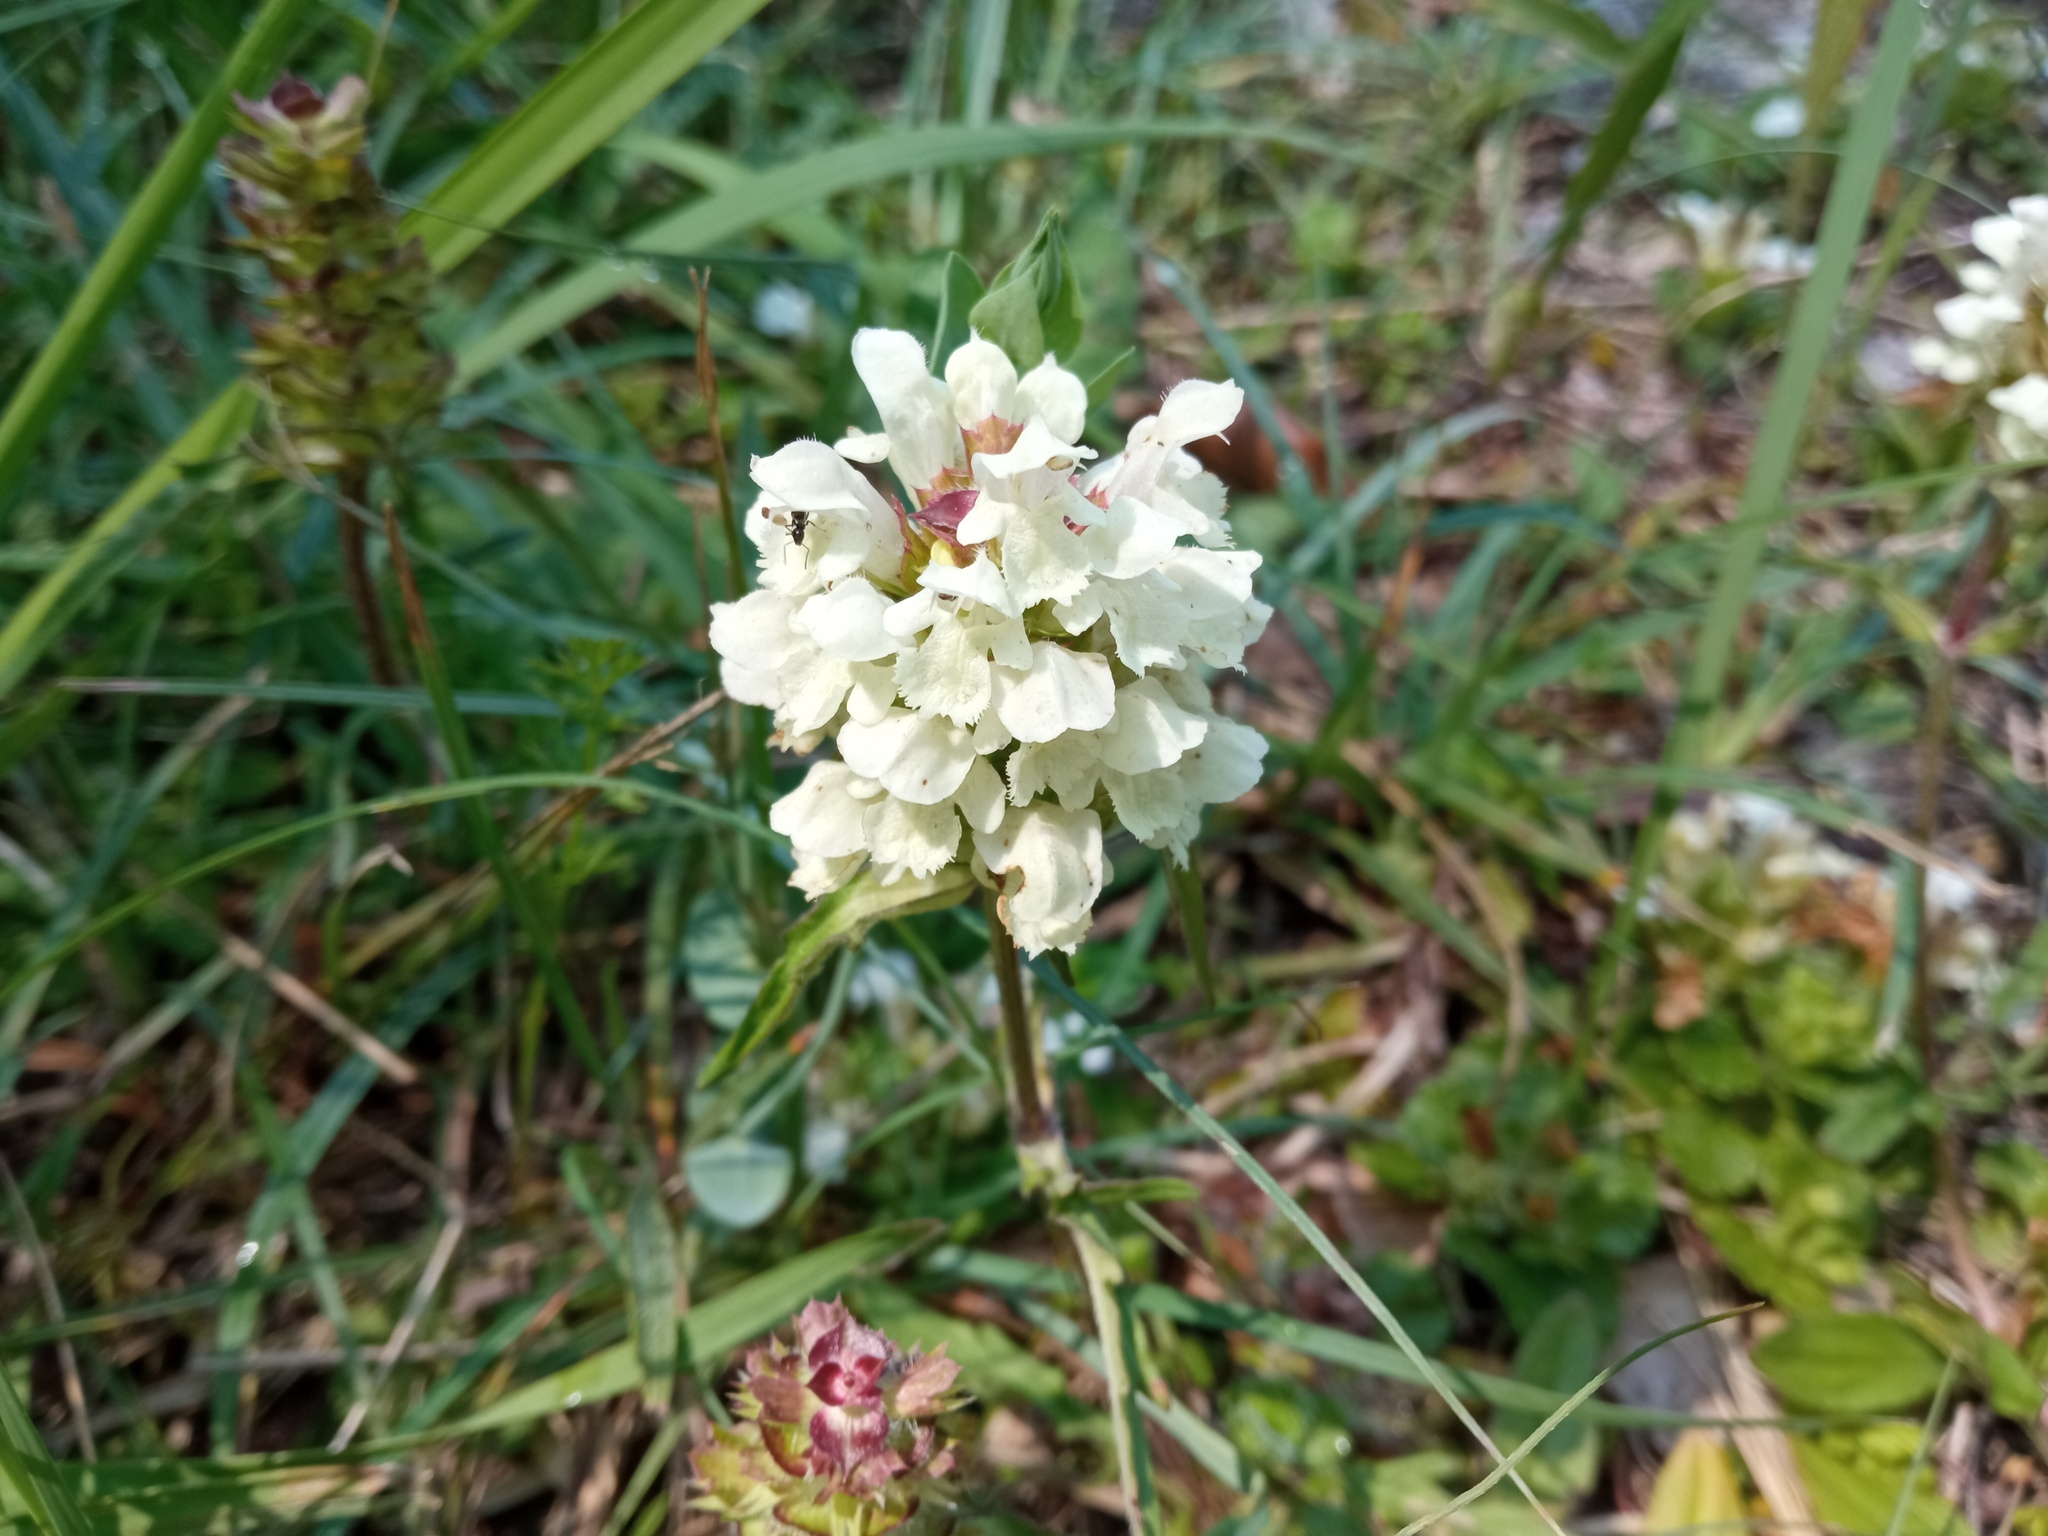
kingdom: Plantae
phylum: Tracheophyta
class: Magnoliopsida
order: Lamiales
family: Lamiaceae
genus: Prunella
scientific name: Prunella laciniata
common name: Cut-leaved selfheal
